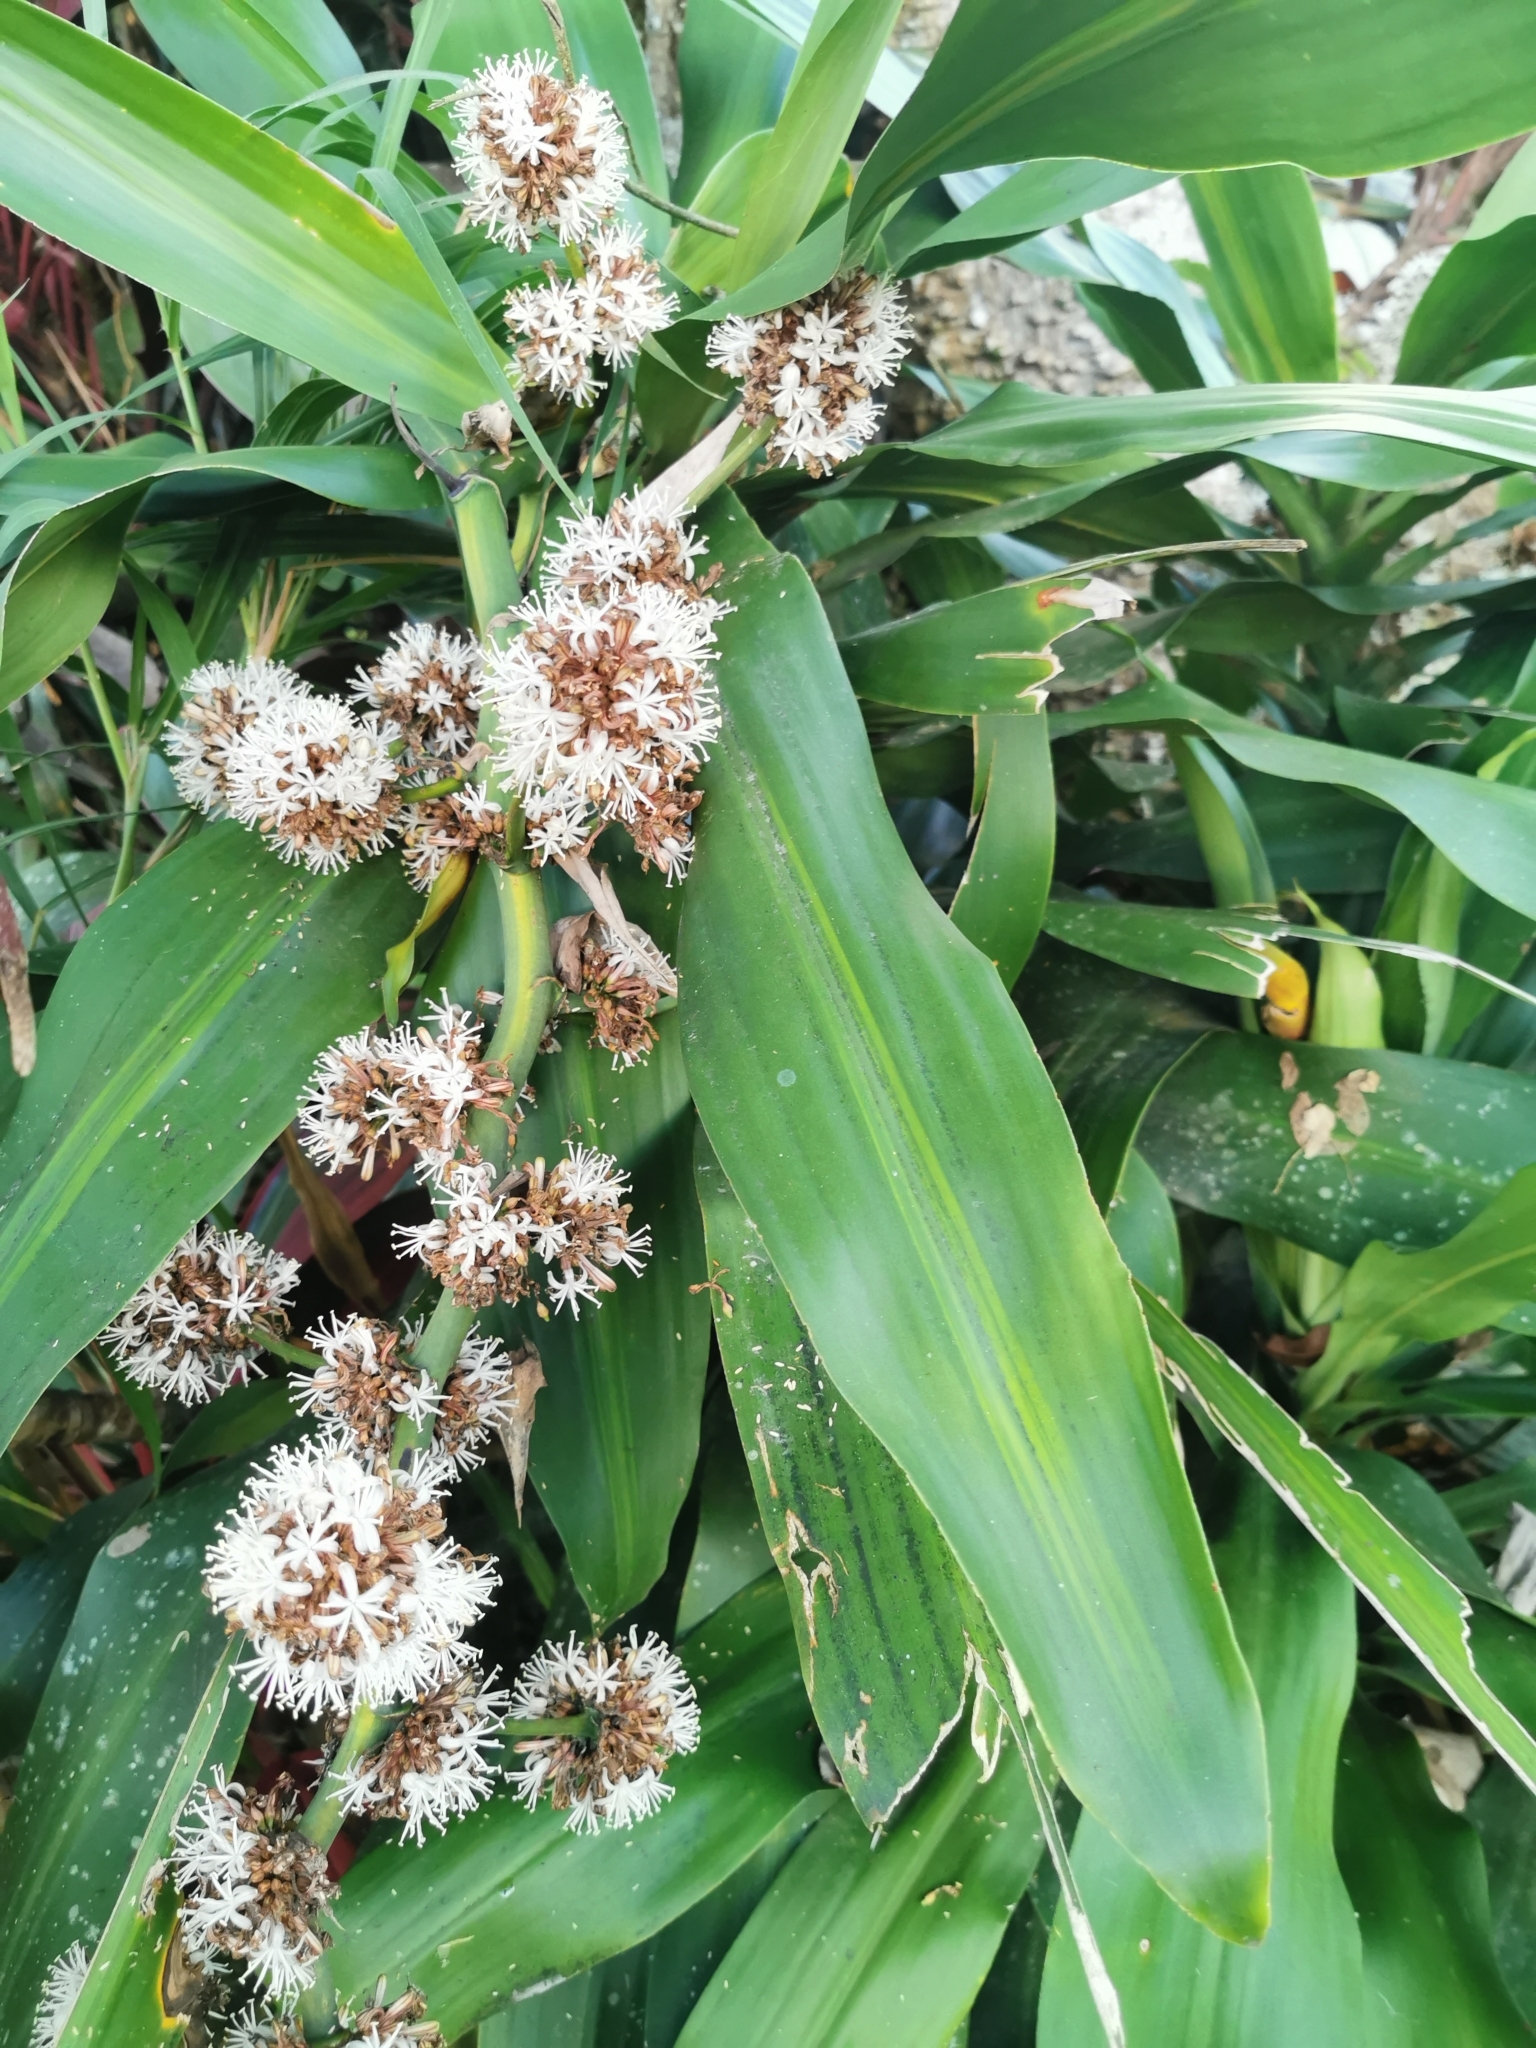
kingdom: Plantae
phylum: Tracheophyta
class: Liliopsida
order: Asparagales
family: Asparagaceae
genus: Dracaena
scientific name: Dracaena fragrans
